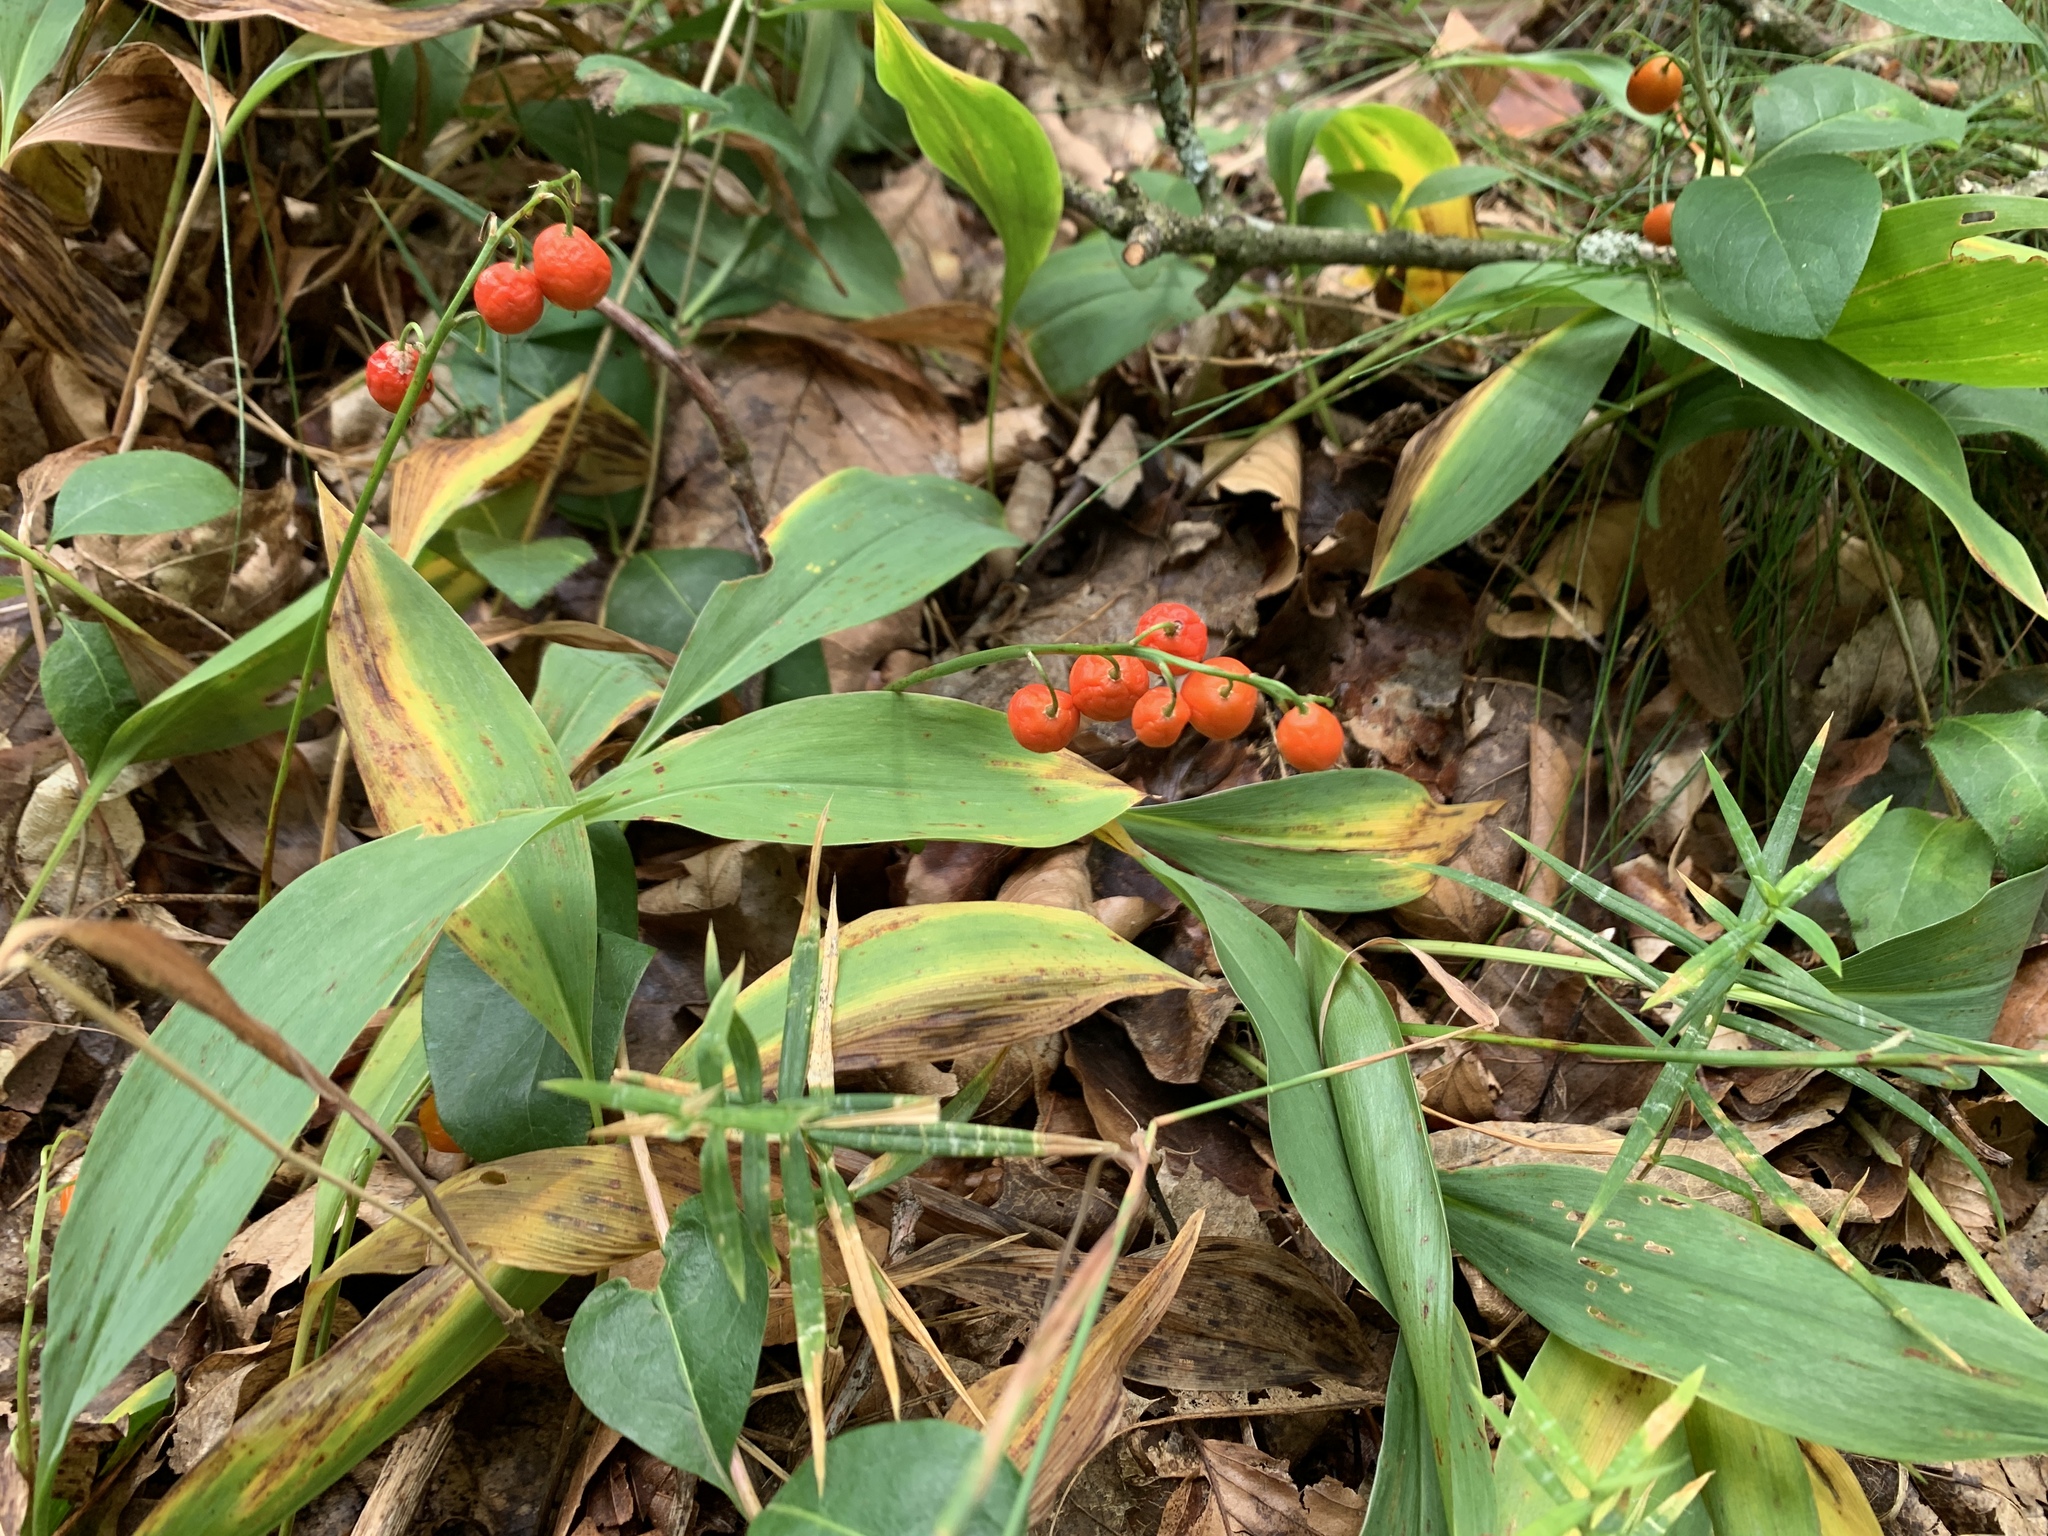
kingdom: Plantae
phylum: Tracheophyta
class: Liliopsida
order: Asparagales
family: Asparagaceae
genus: Convallaria
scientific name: Convallaria majalis
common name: Lily-of-the-valley
